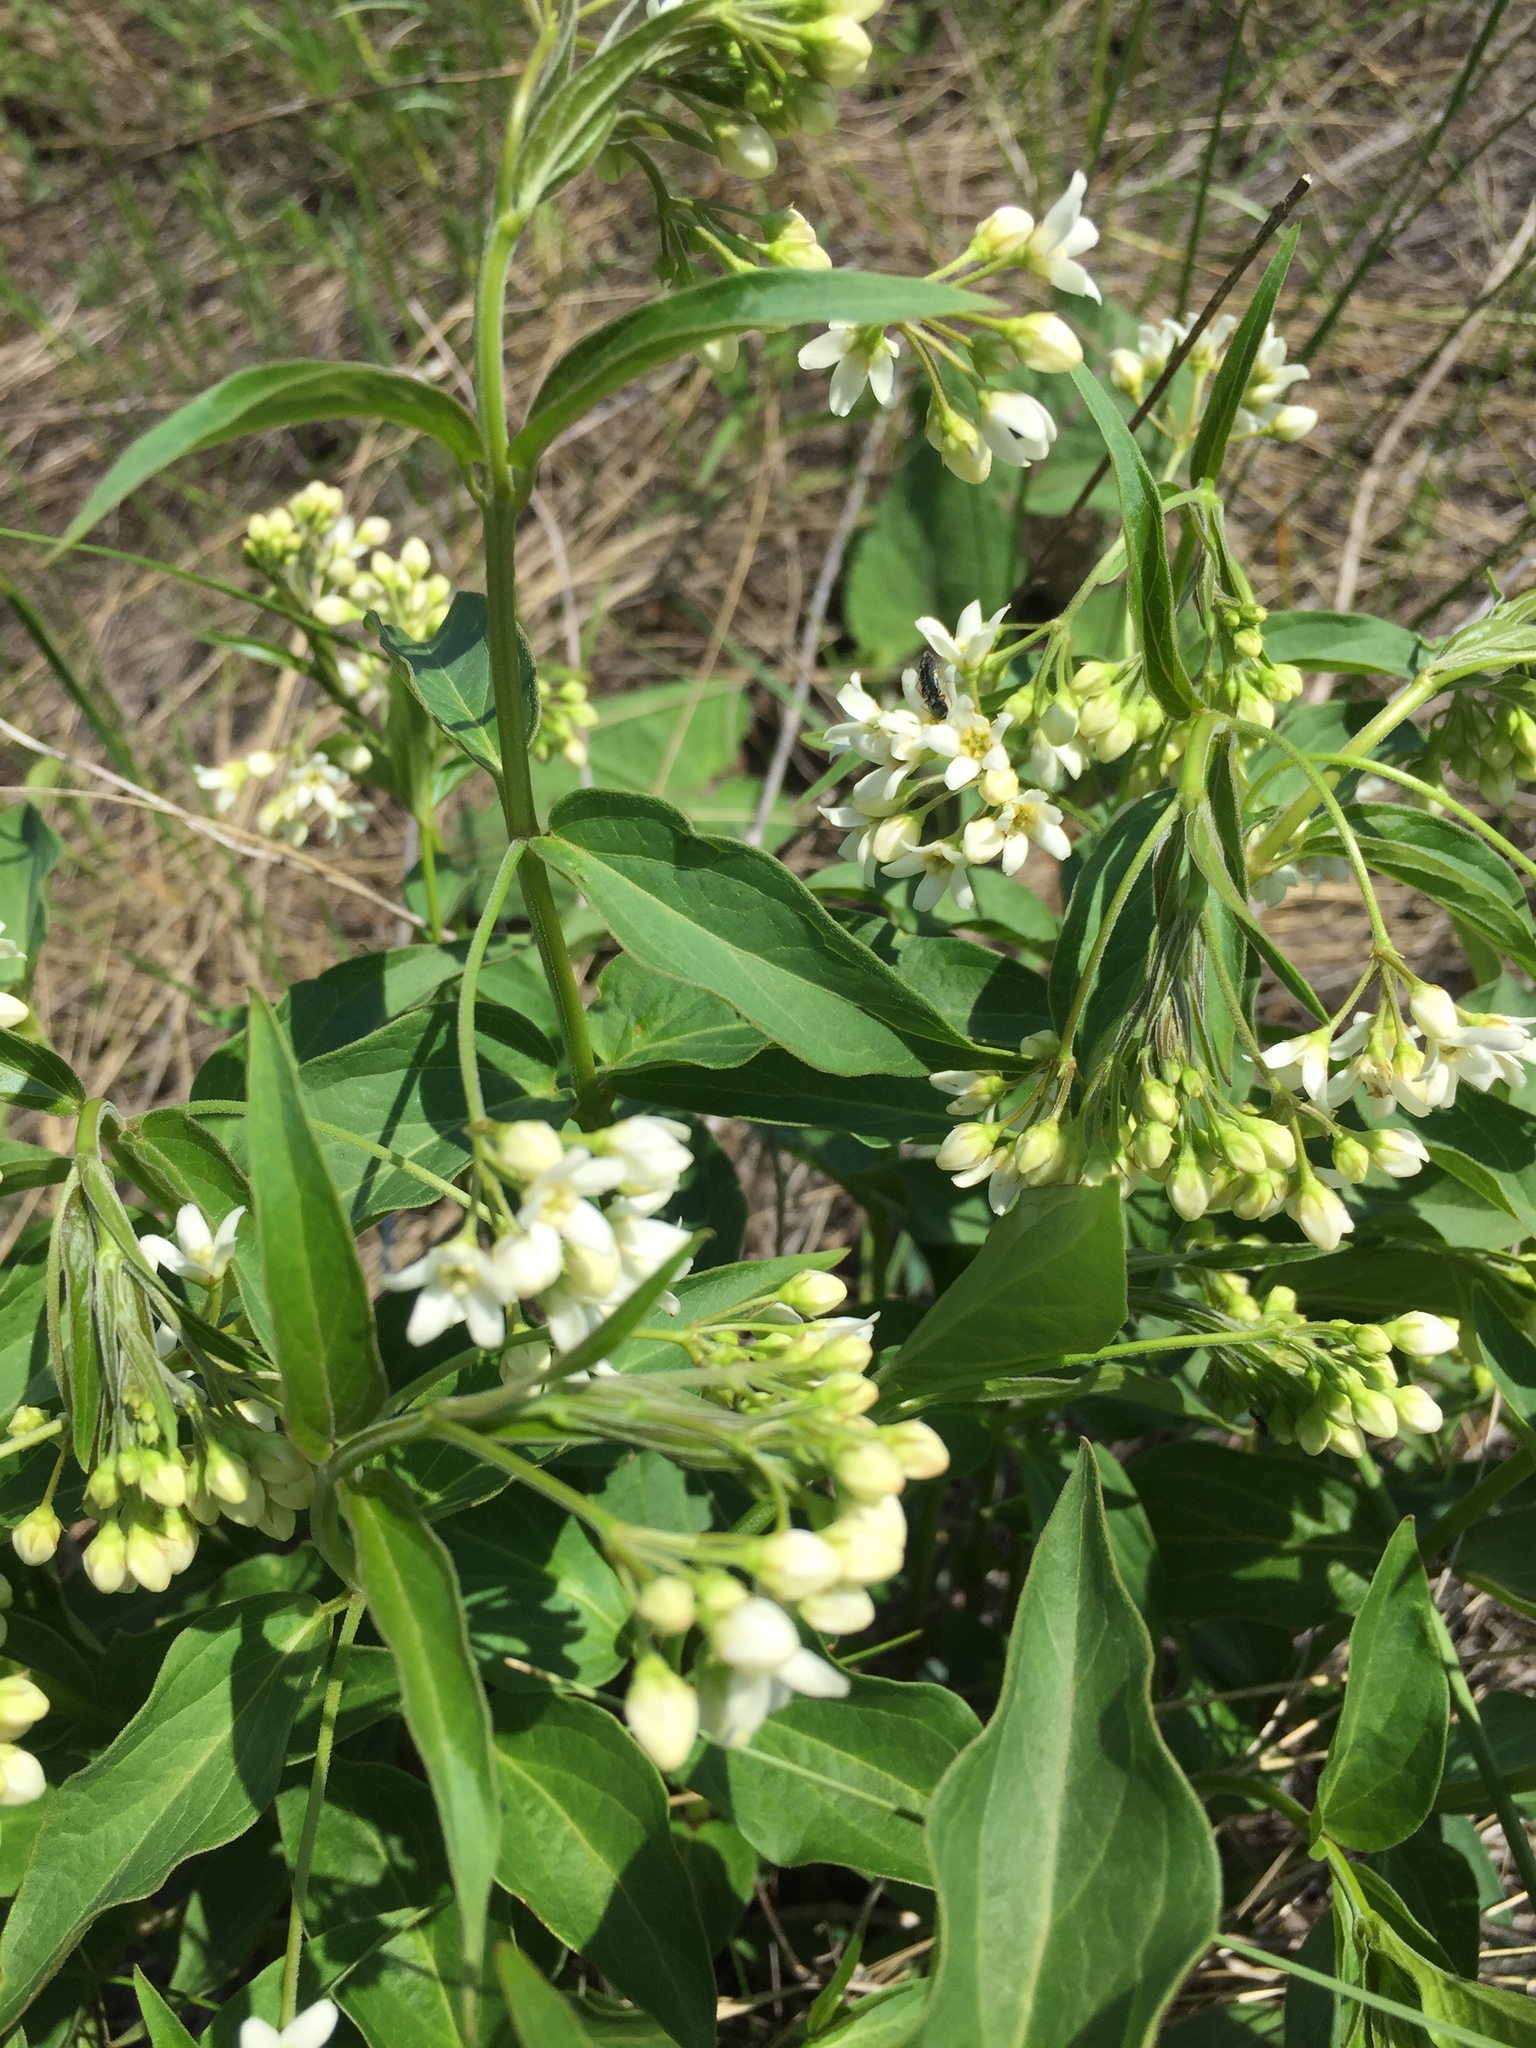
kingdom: Plantae
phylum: Tracheophyta
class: Magnoliopsida
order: Gentianales
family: Apocynaceae
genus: Vincetoxicum
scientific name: Vincetoxicum hirundinaria
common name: White swallowwort
